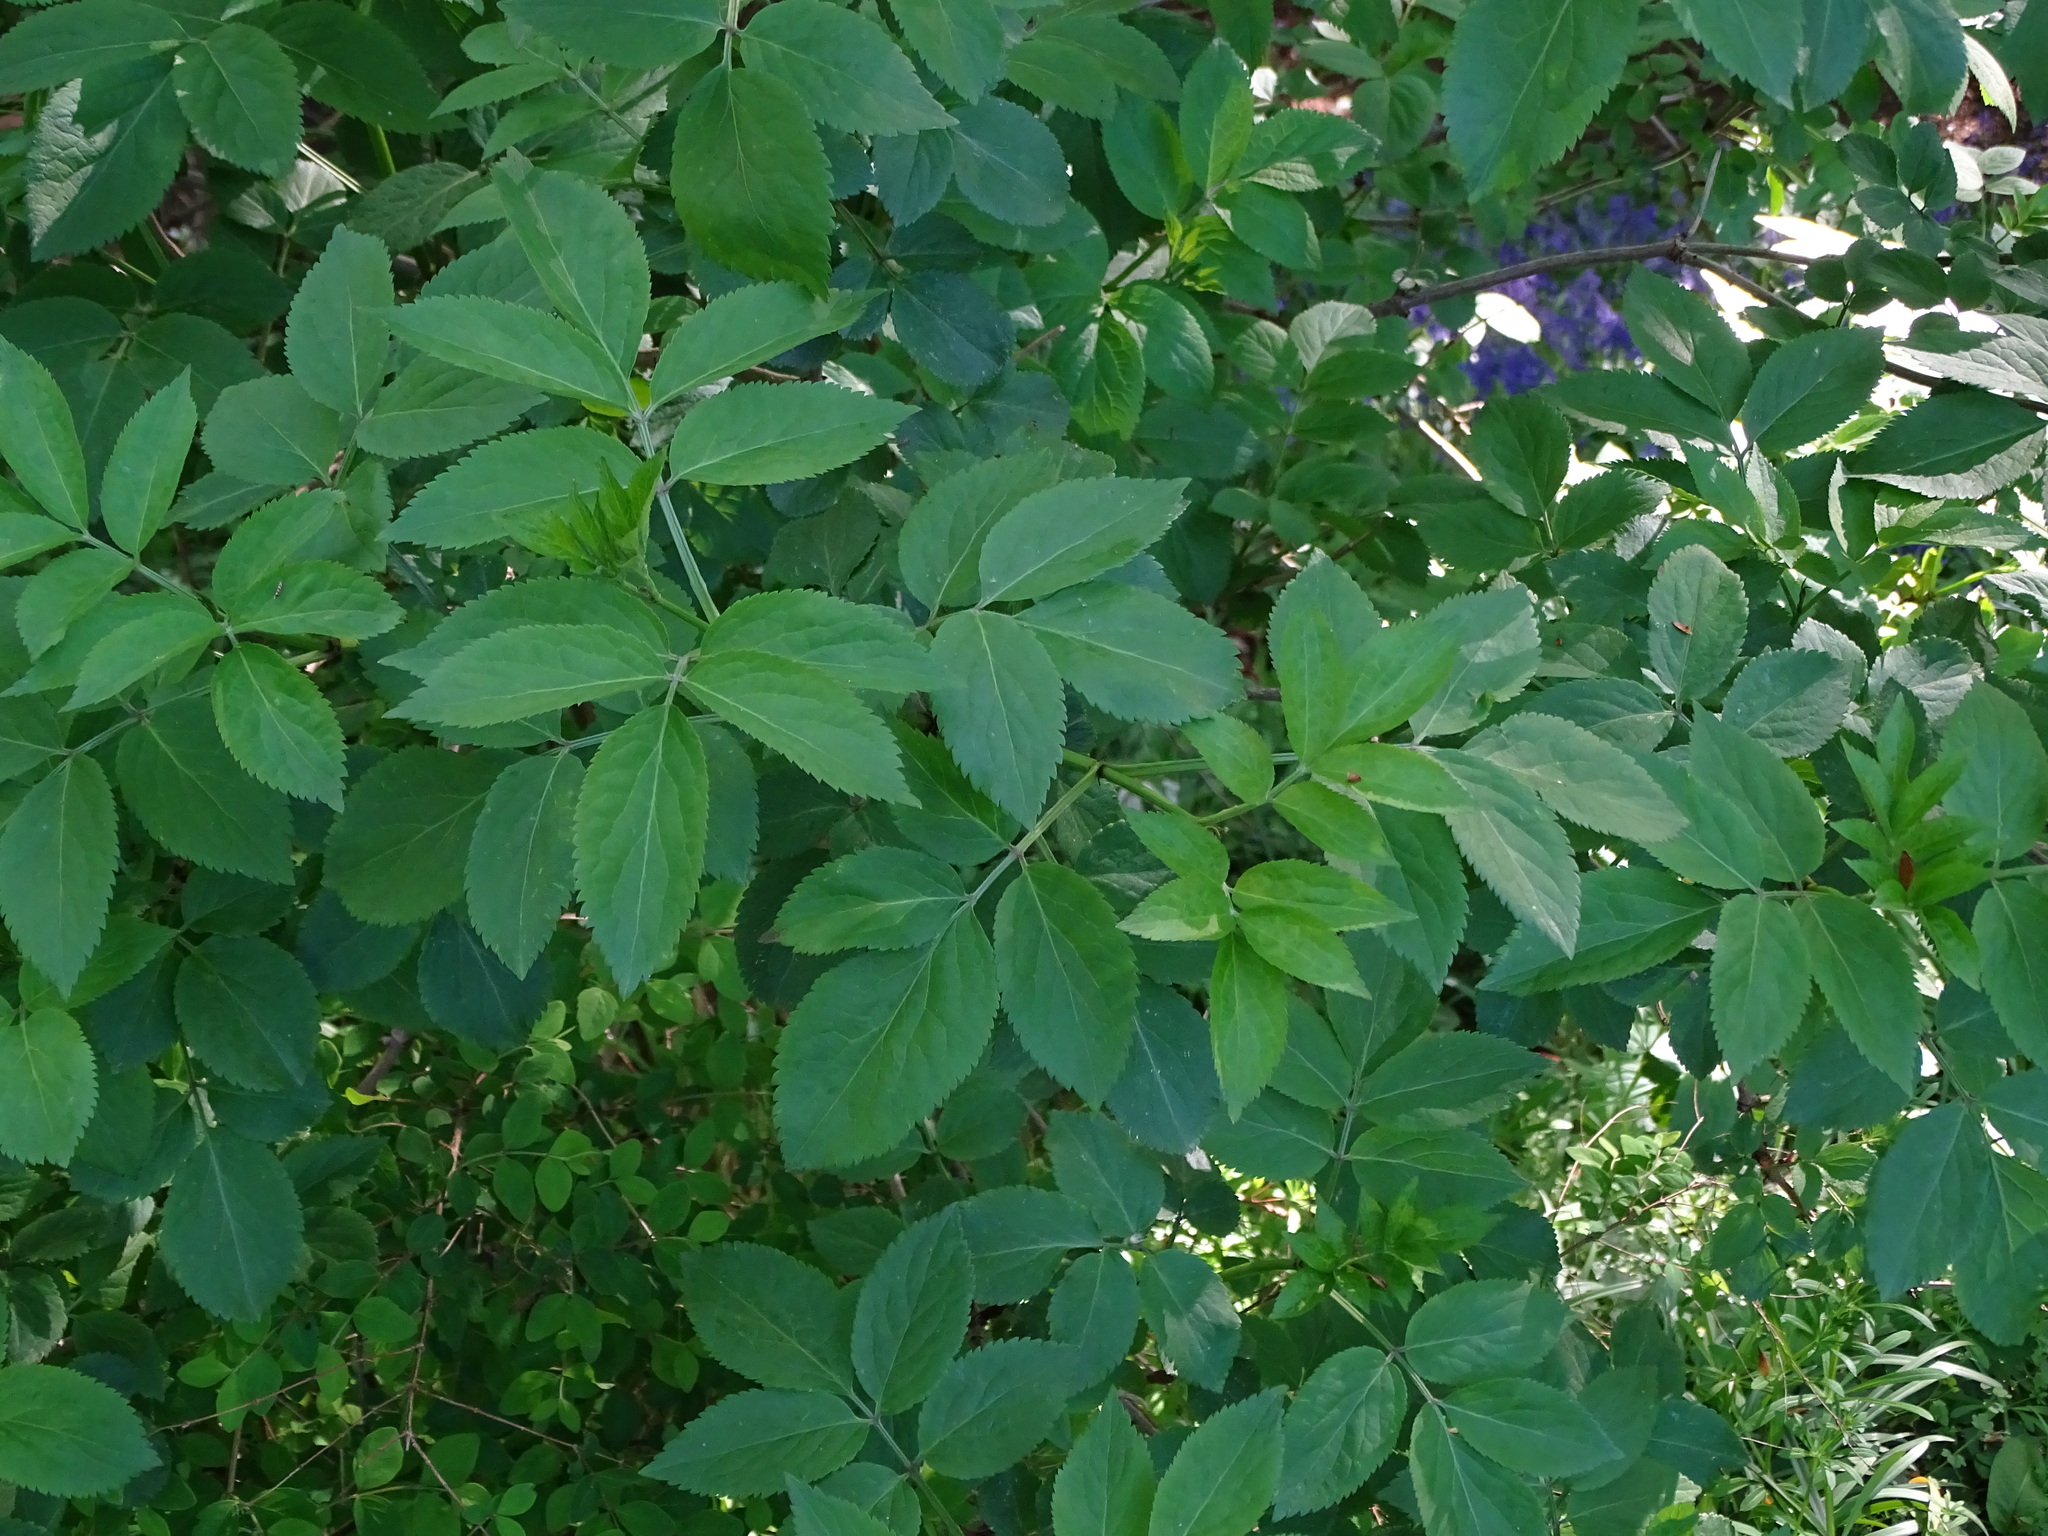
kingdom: Plantae
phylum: Tracheophyta
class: Magnoliopsida
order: Dipsacales
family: Viburnaceae
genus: Sambucus
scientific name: Sambucus nigra
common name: Elder
